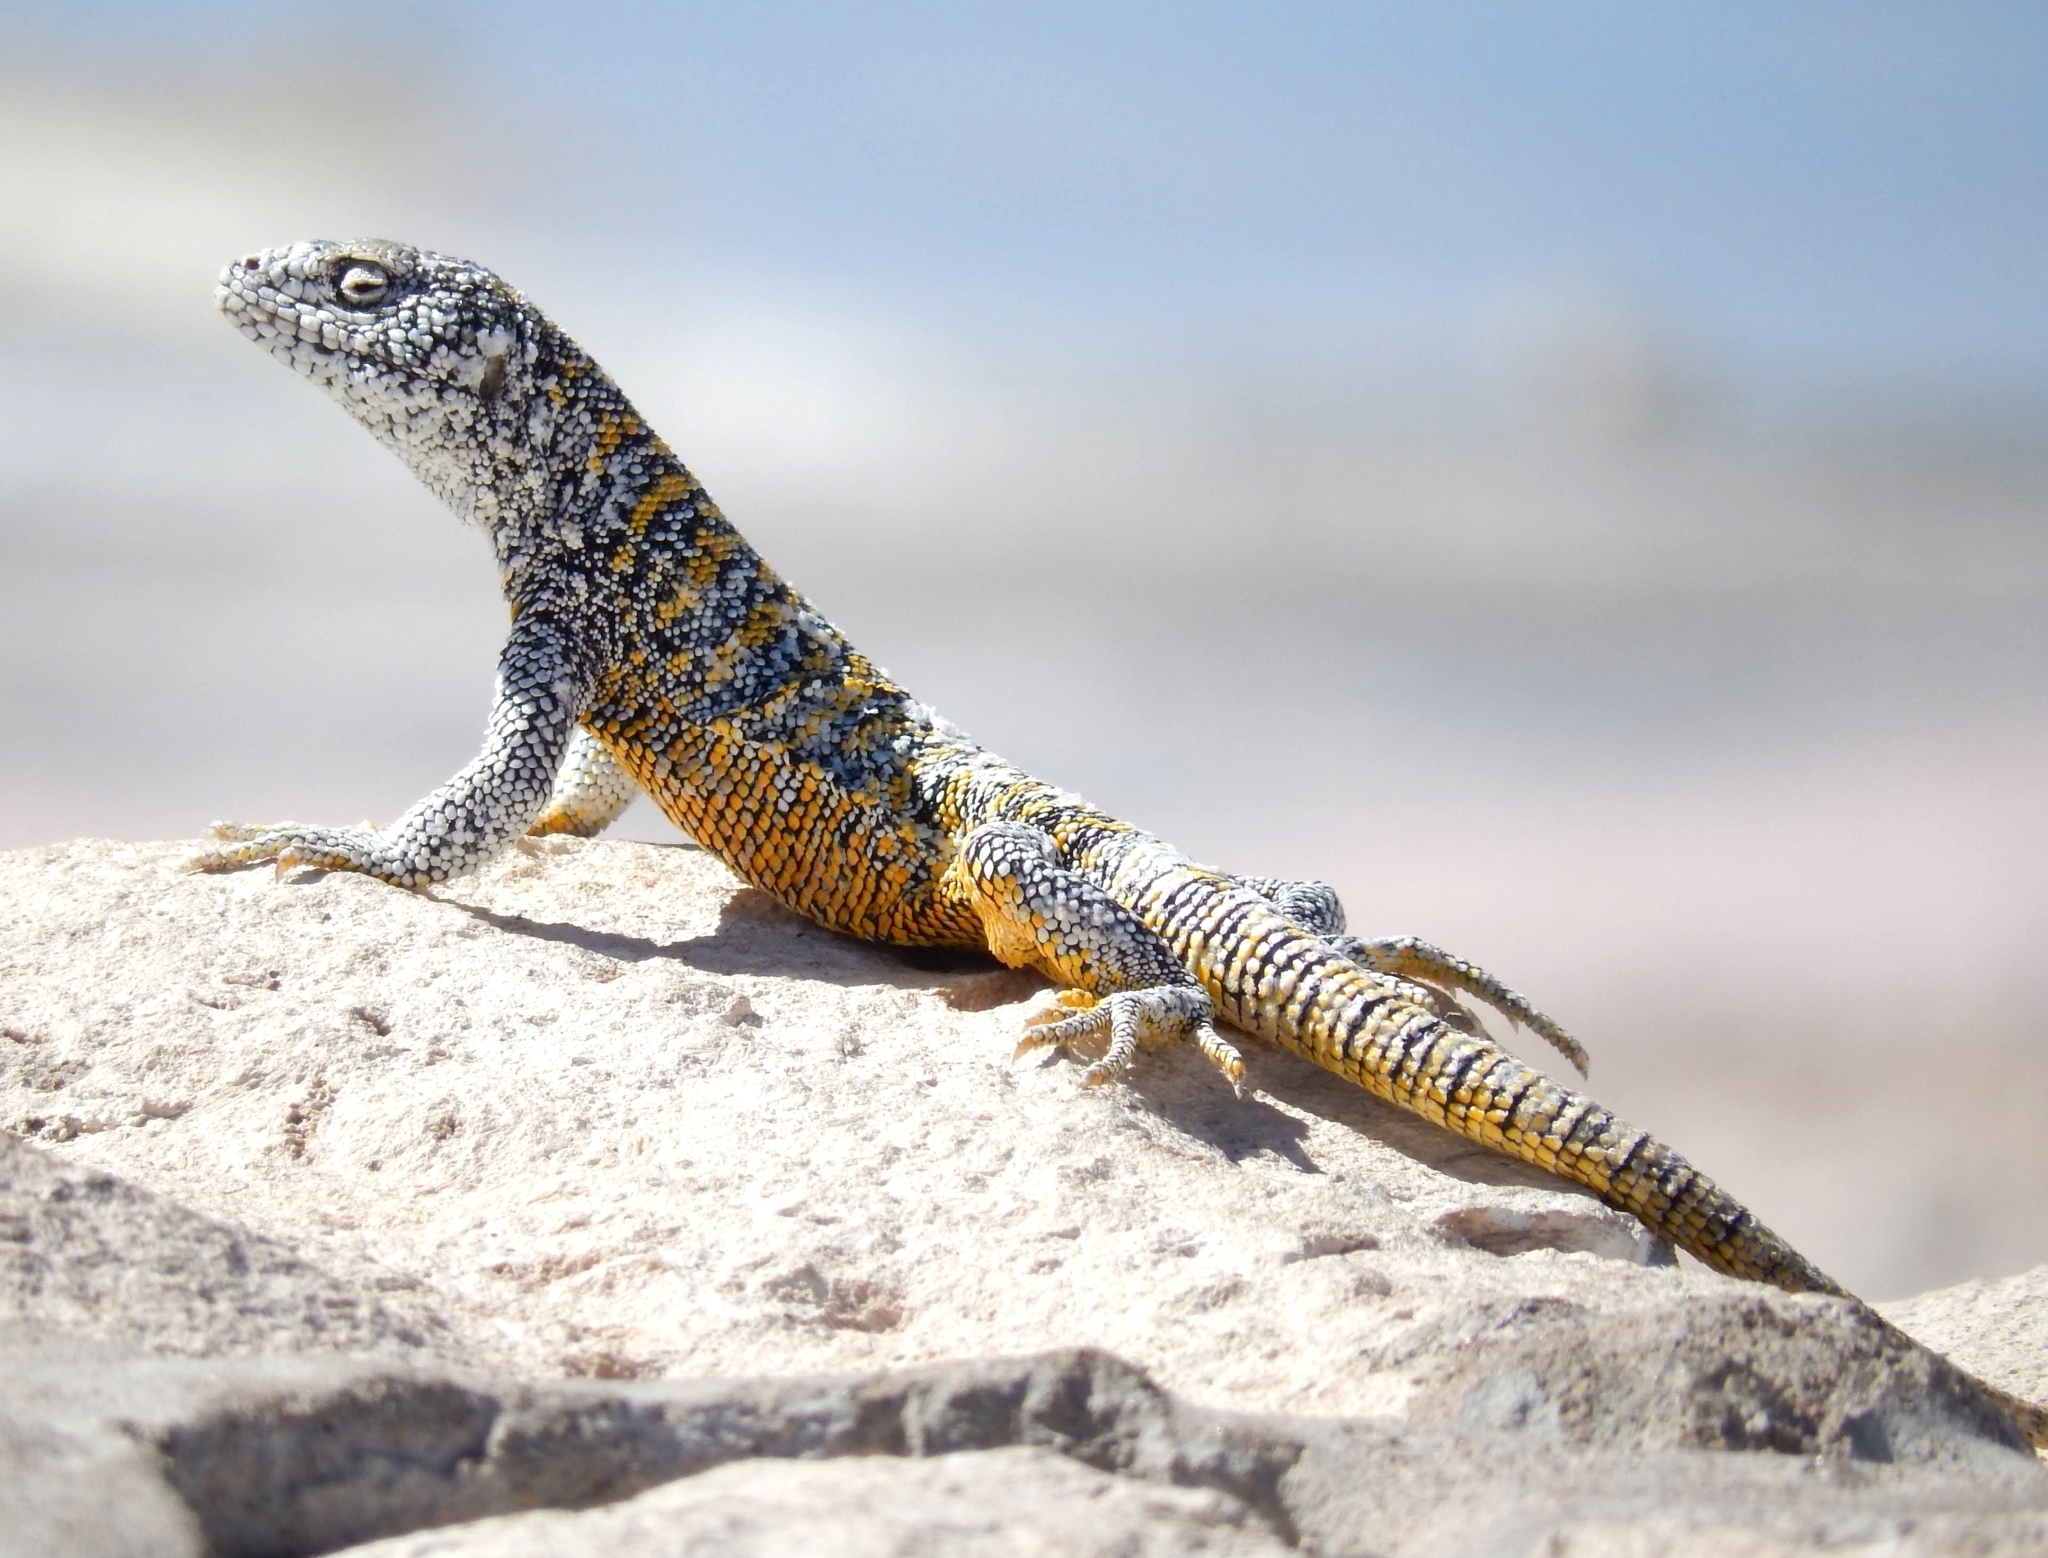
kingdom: Animalia
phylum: Chordata
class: Squamata
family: Liolaemidae
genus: Liolaemus
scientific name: Liolaemus fabiani
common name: Fabian’s lizard
